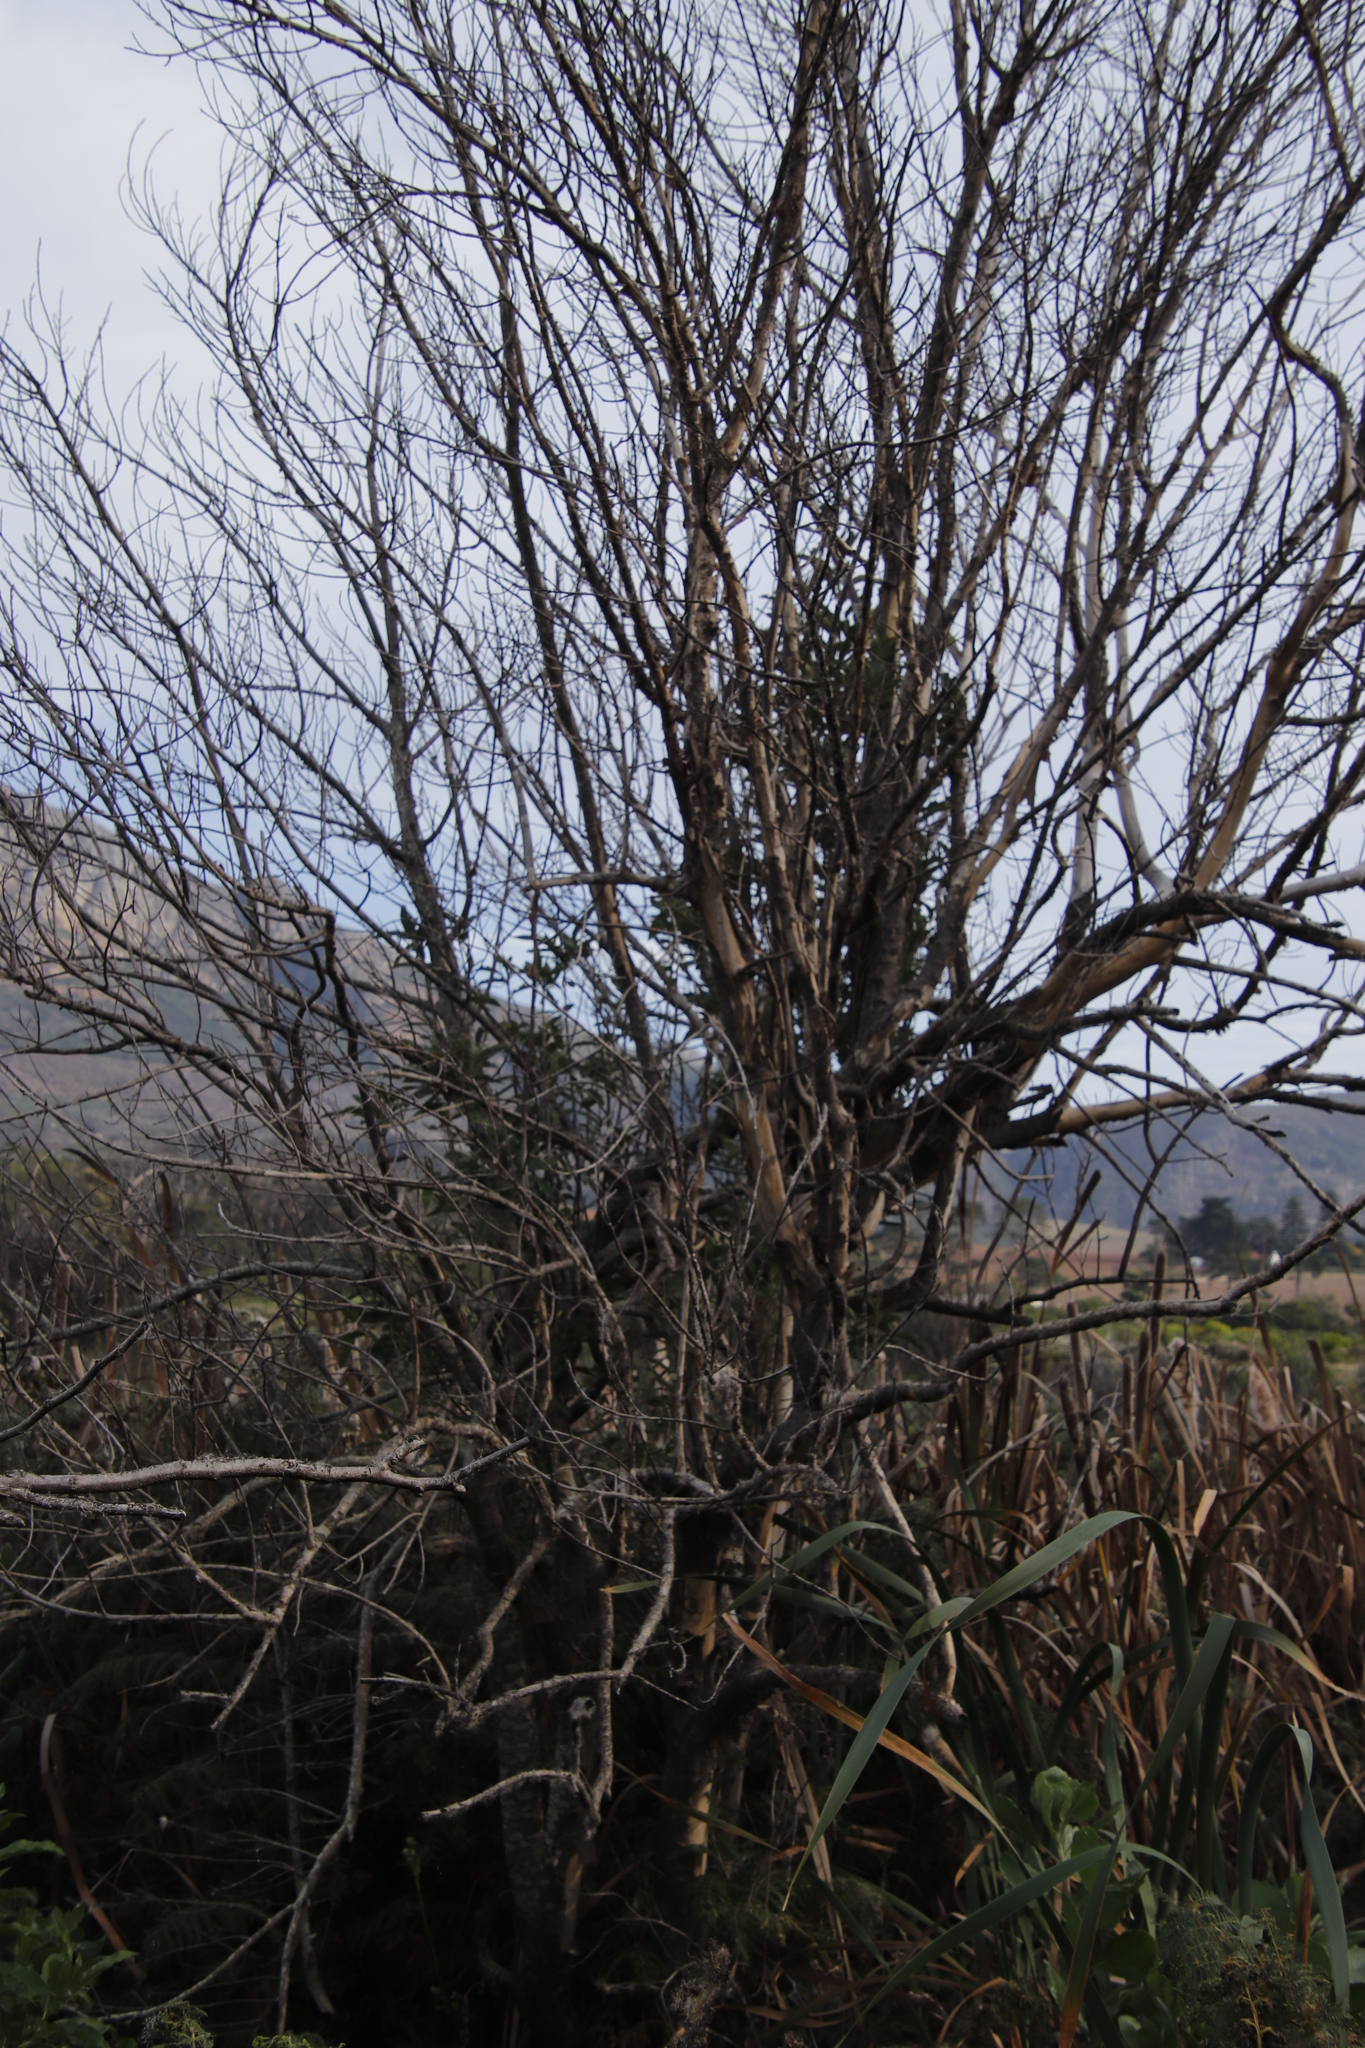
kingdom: Plantae
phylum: Tracheophyta
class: Magnoliopsida
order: Malpighiales
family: Achariaceae
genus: Kiggelaria
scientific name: Kiggelaria africana
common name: Wild peach
